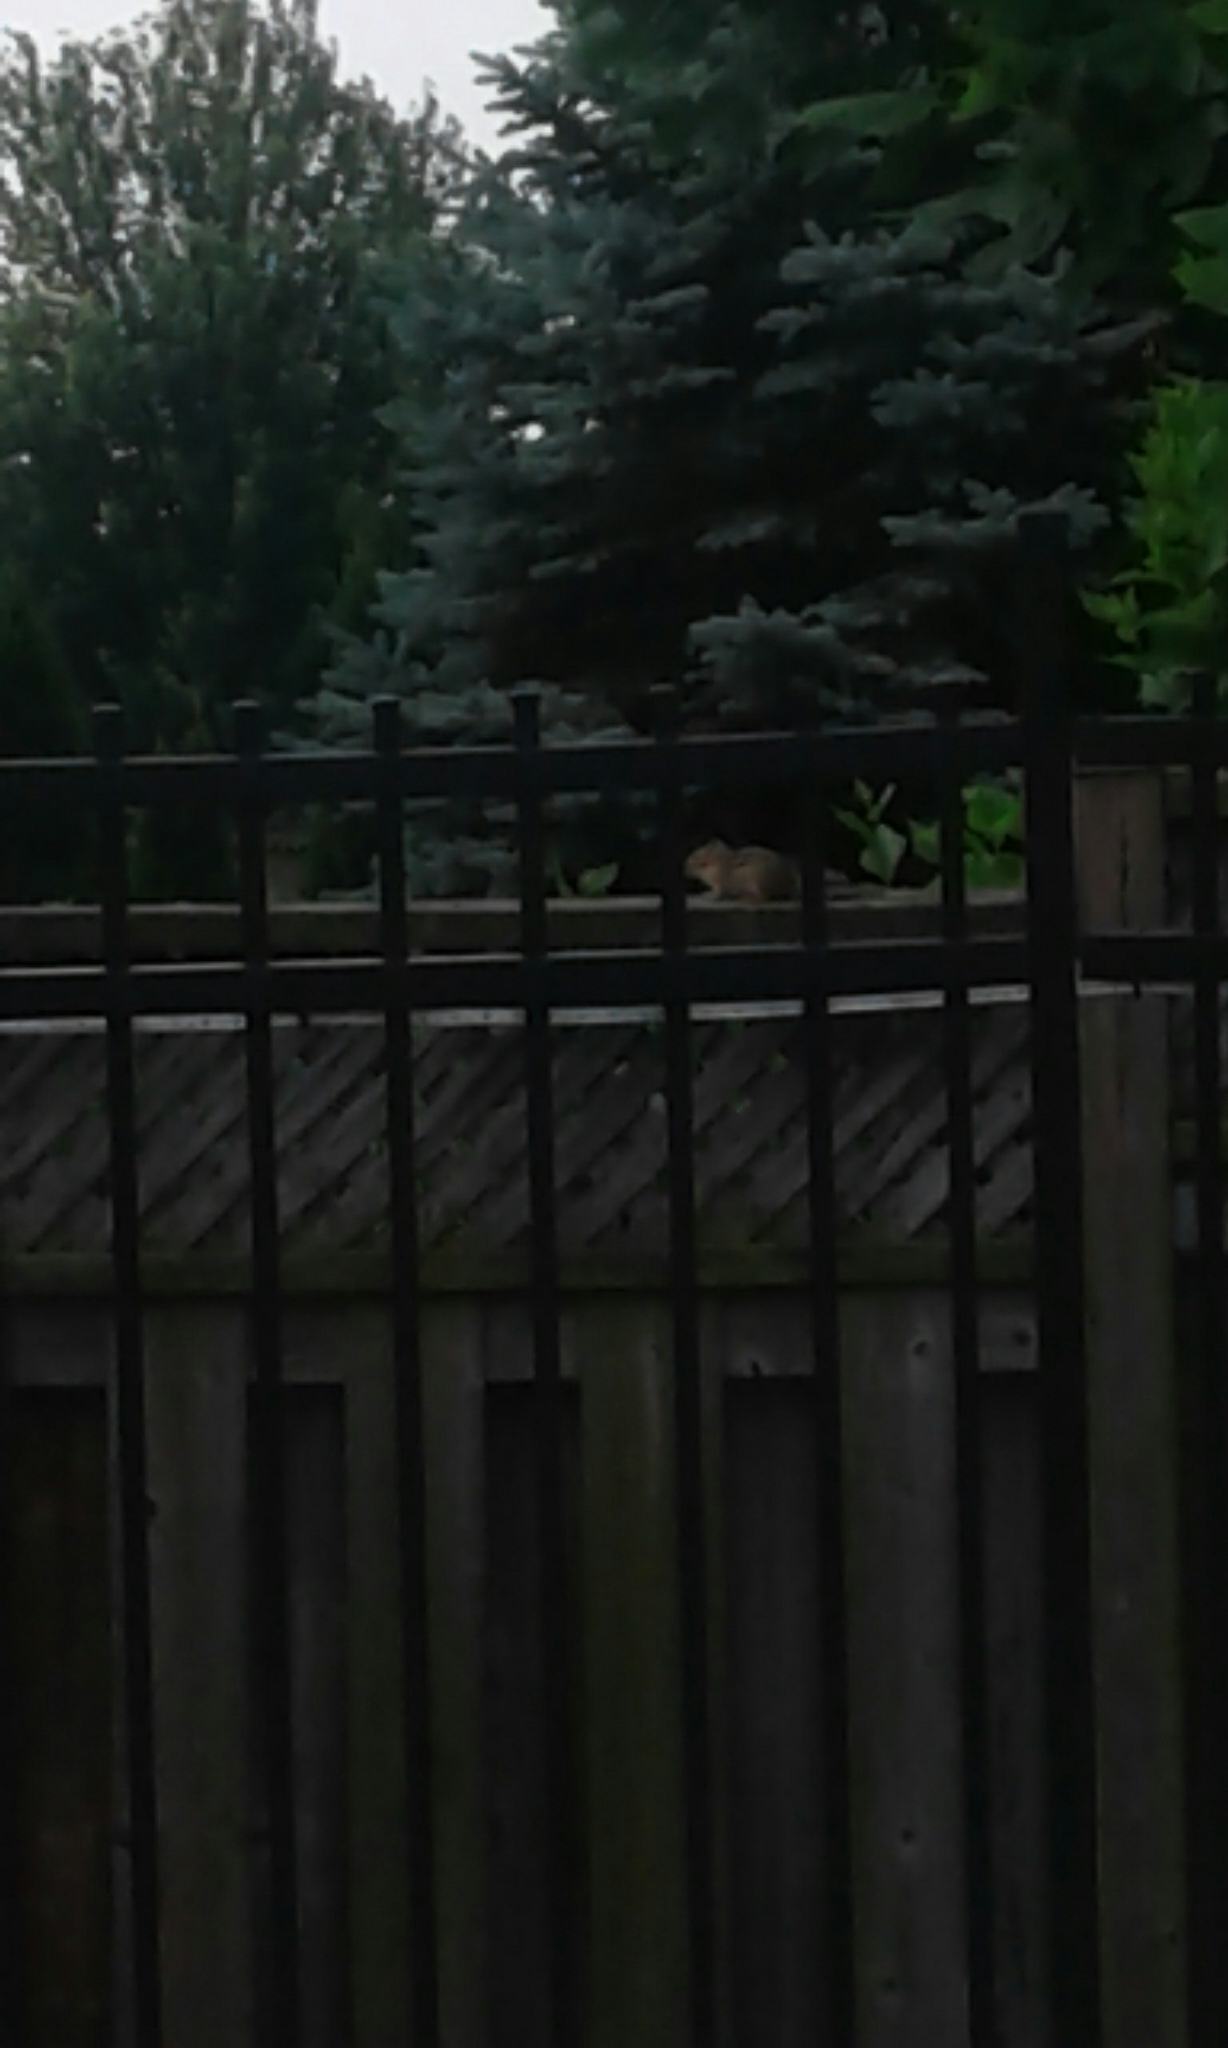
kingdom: Animalia
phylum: Chordata
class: Mammalia
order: Rodentia
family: Sciuridae
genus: Tamias
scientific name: Tamias striatus
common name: Eastern chipmunk
